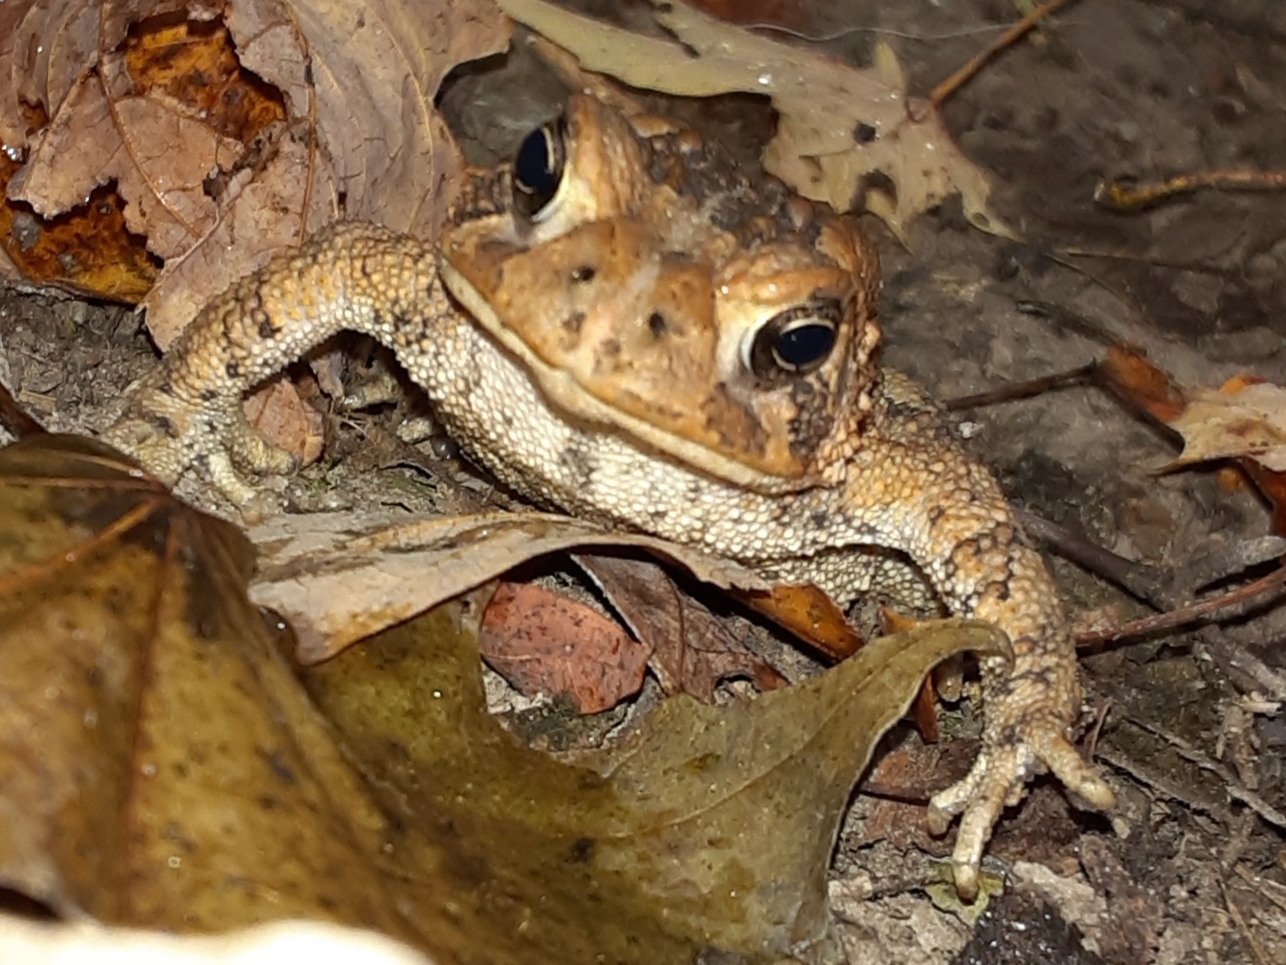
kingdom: Animalia
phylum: Chordata
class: Amphibia
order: Anura
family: Bufonidae
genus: Anaxyrus
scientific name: Anaxyrus americanus
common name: American toad
